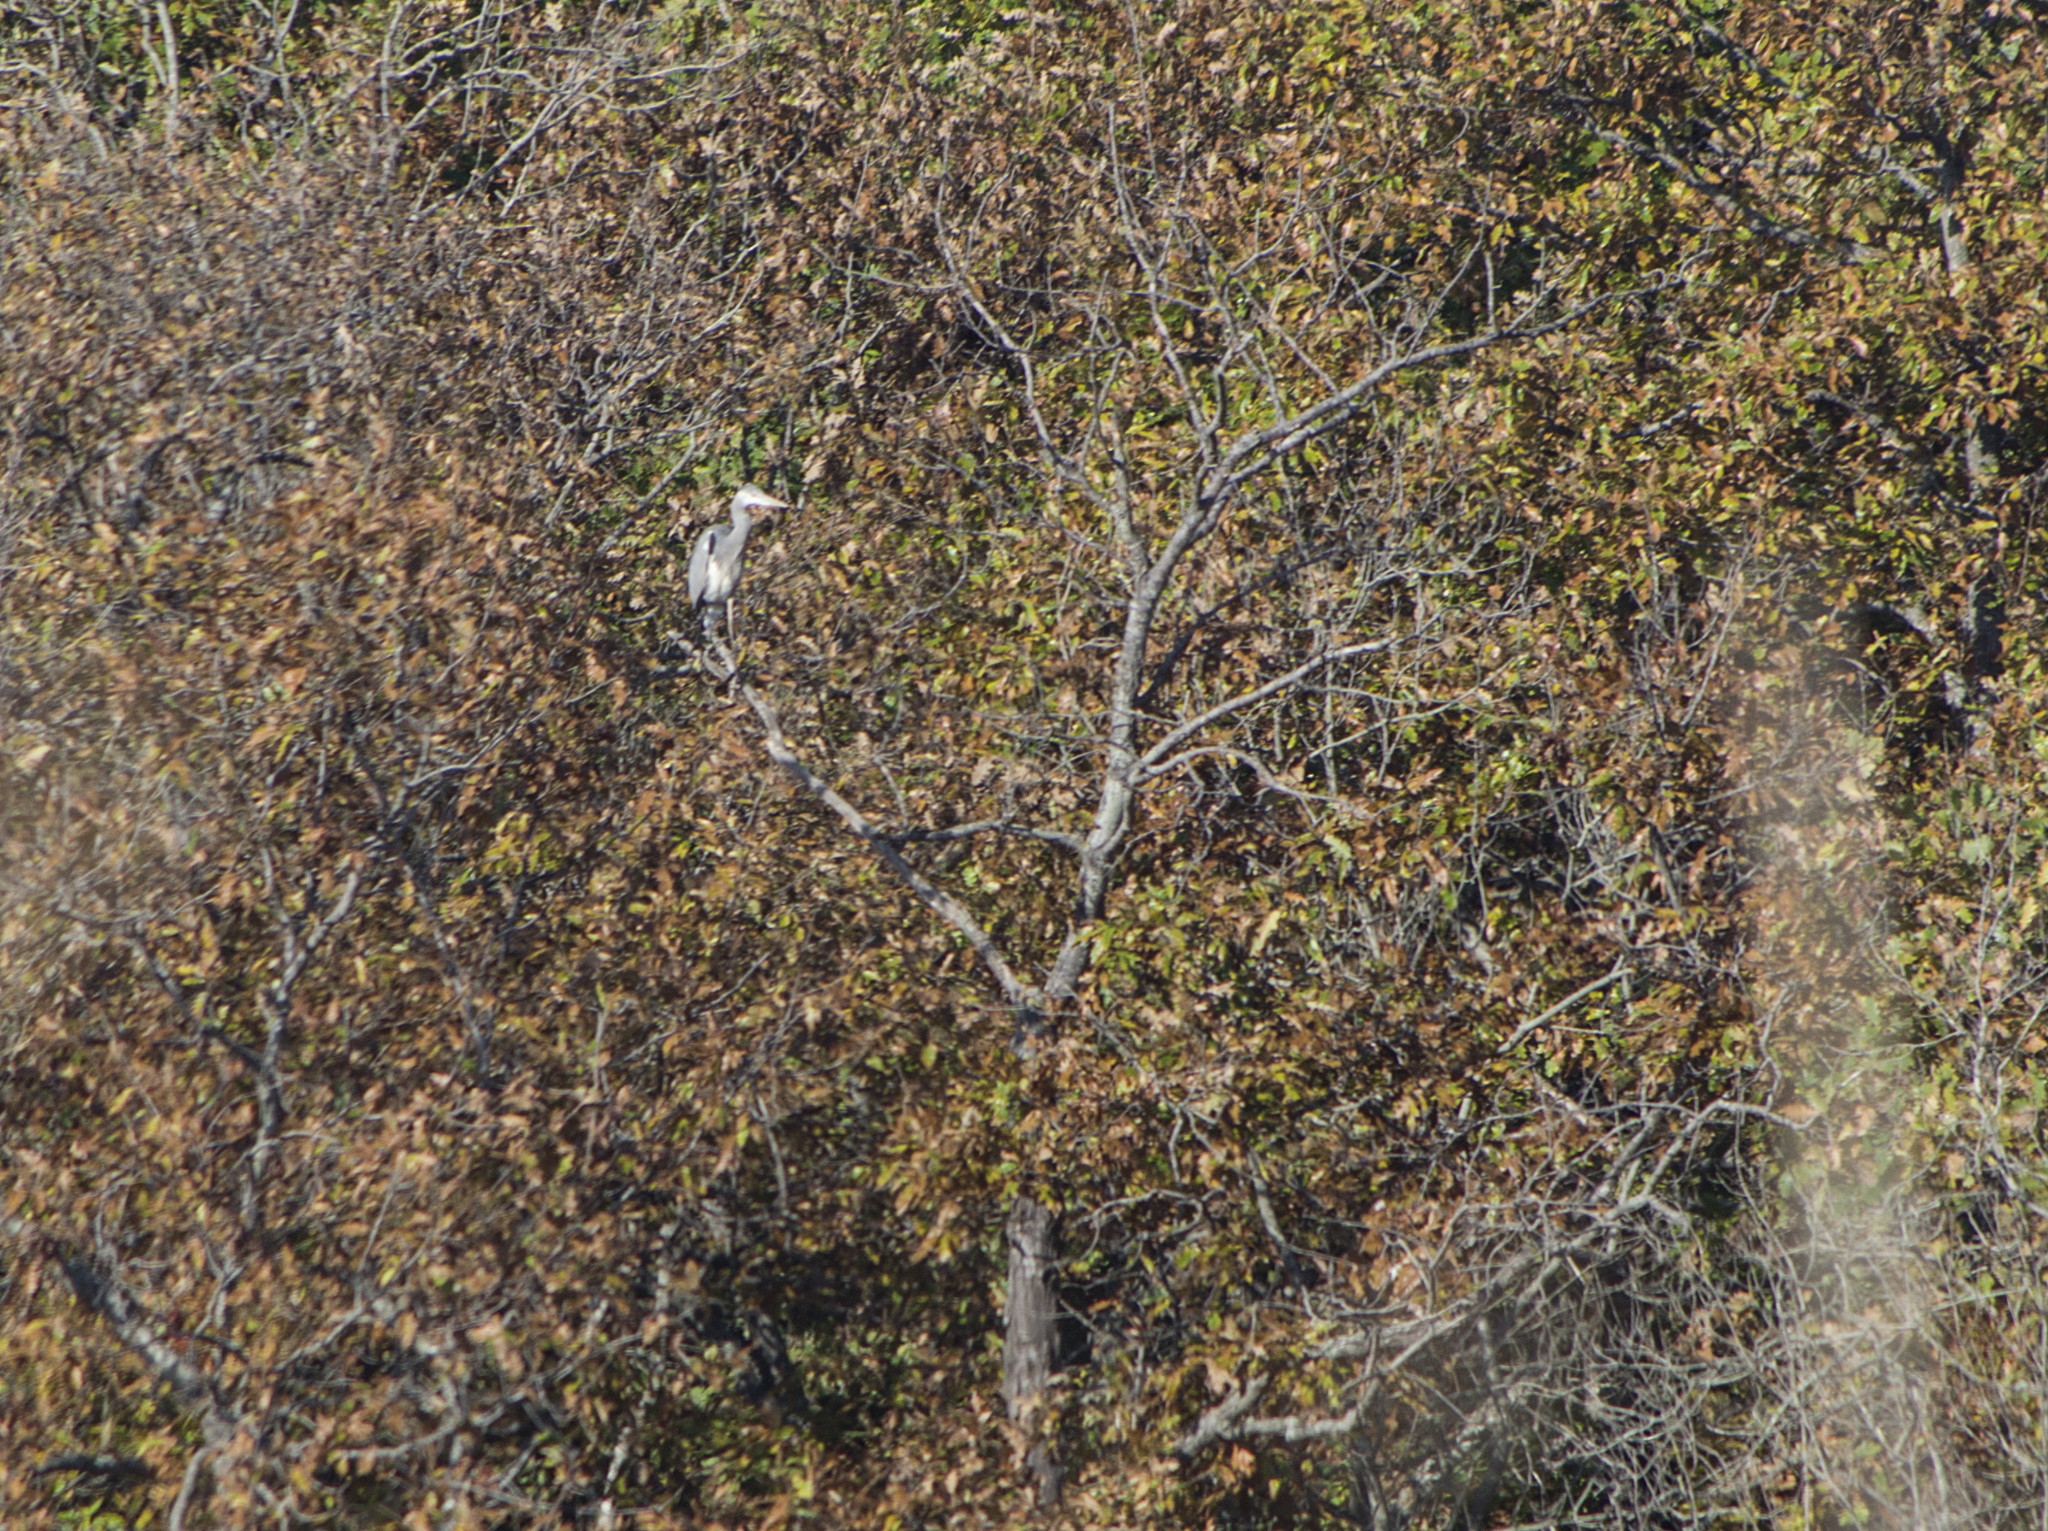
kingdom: Animalia
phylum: Chordata
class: Aves
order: Pelecaniformes
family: Ardeidae
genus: Ardea
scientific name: Ardea cinerea
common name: Grey heron
